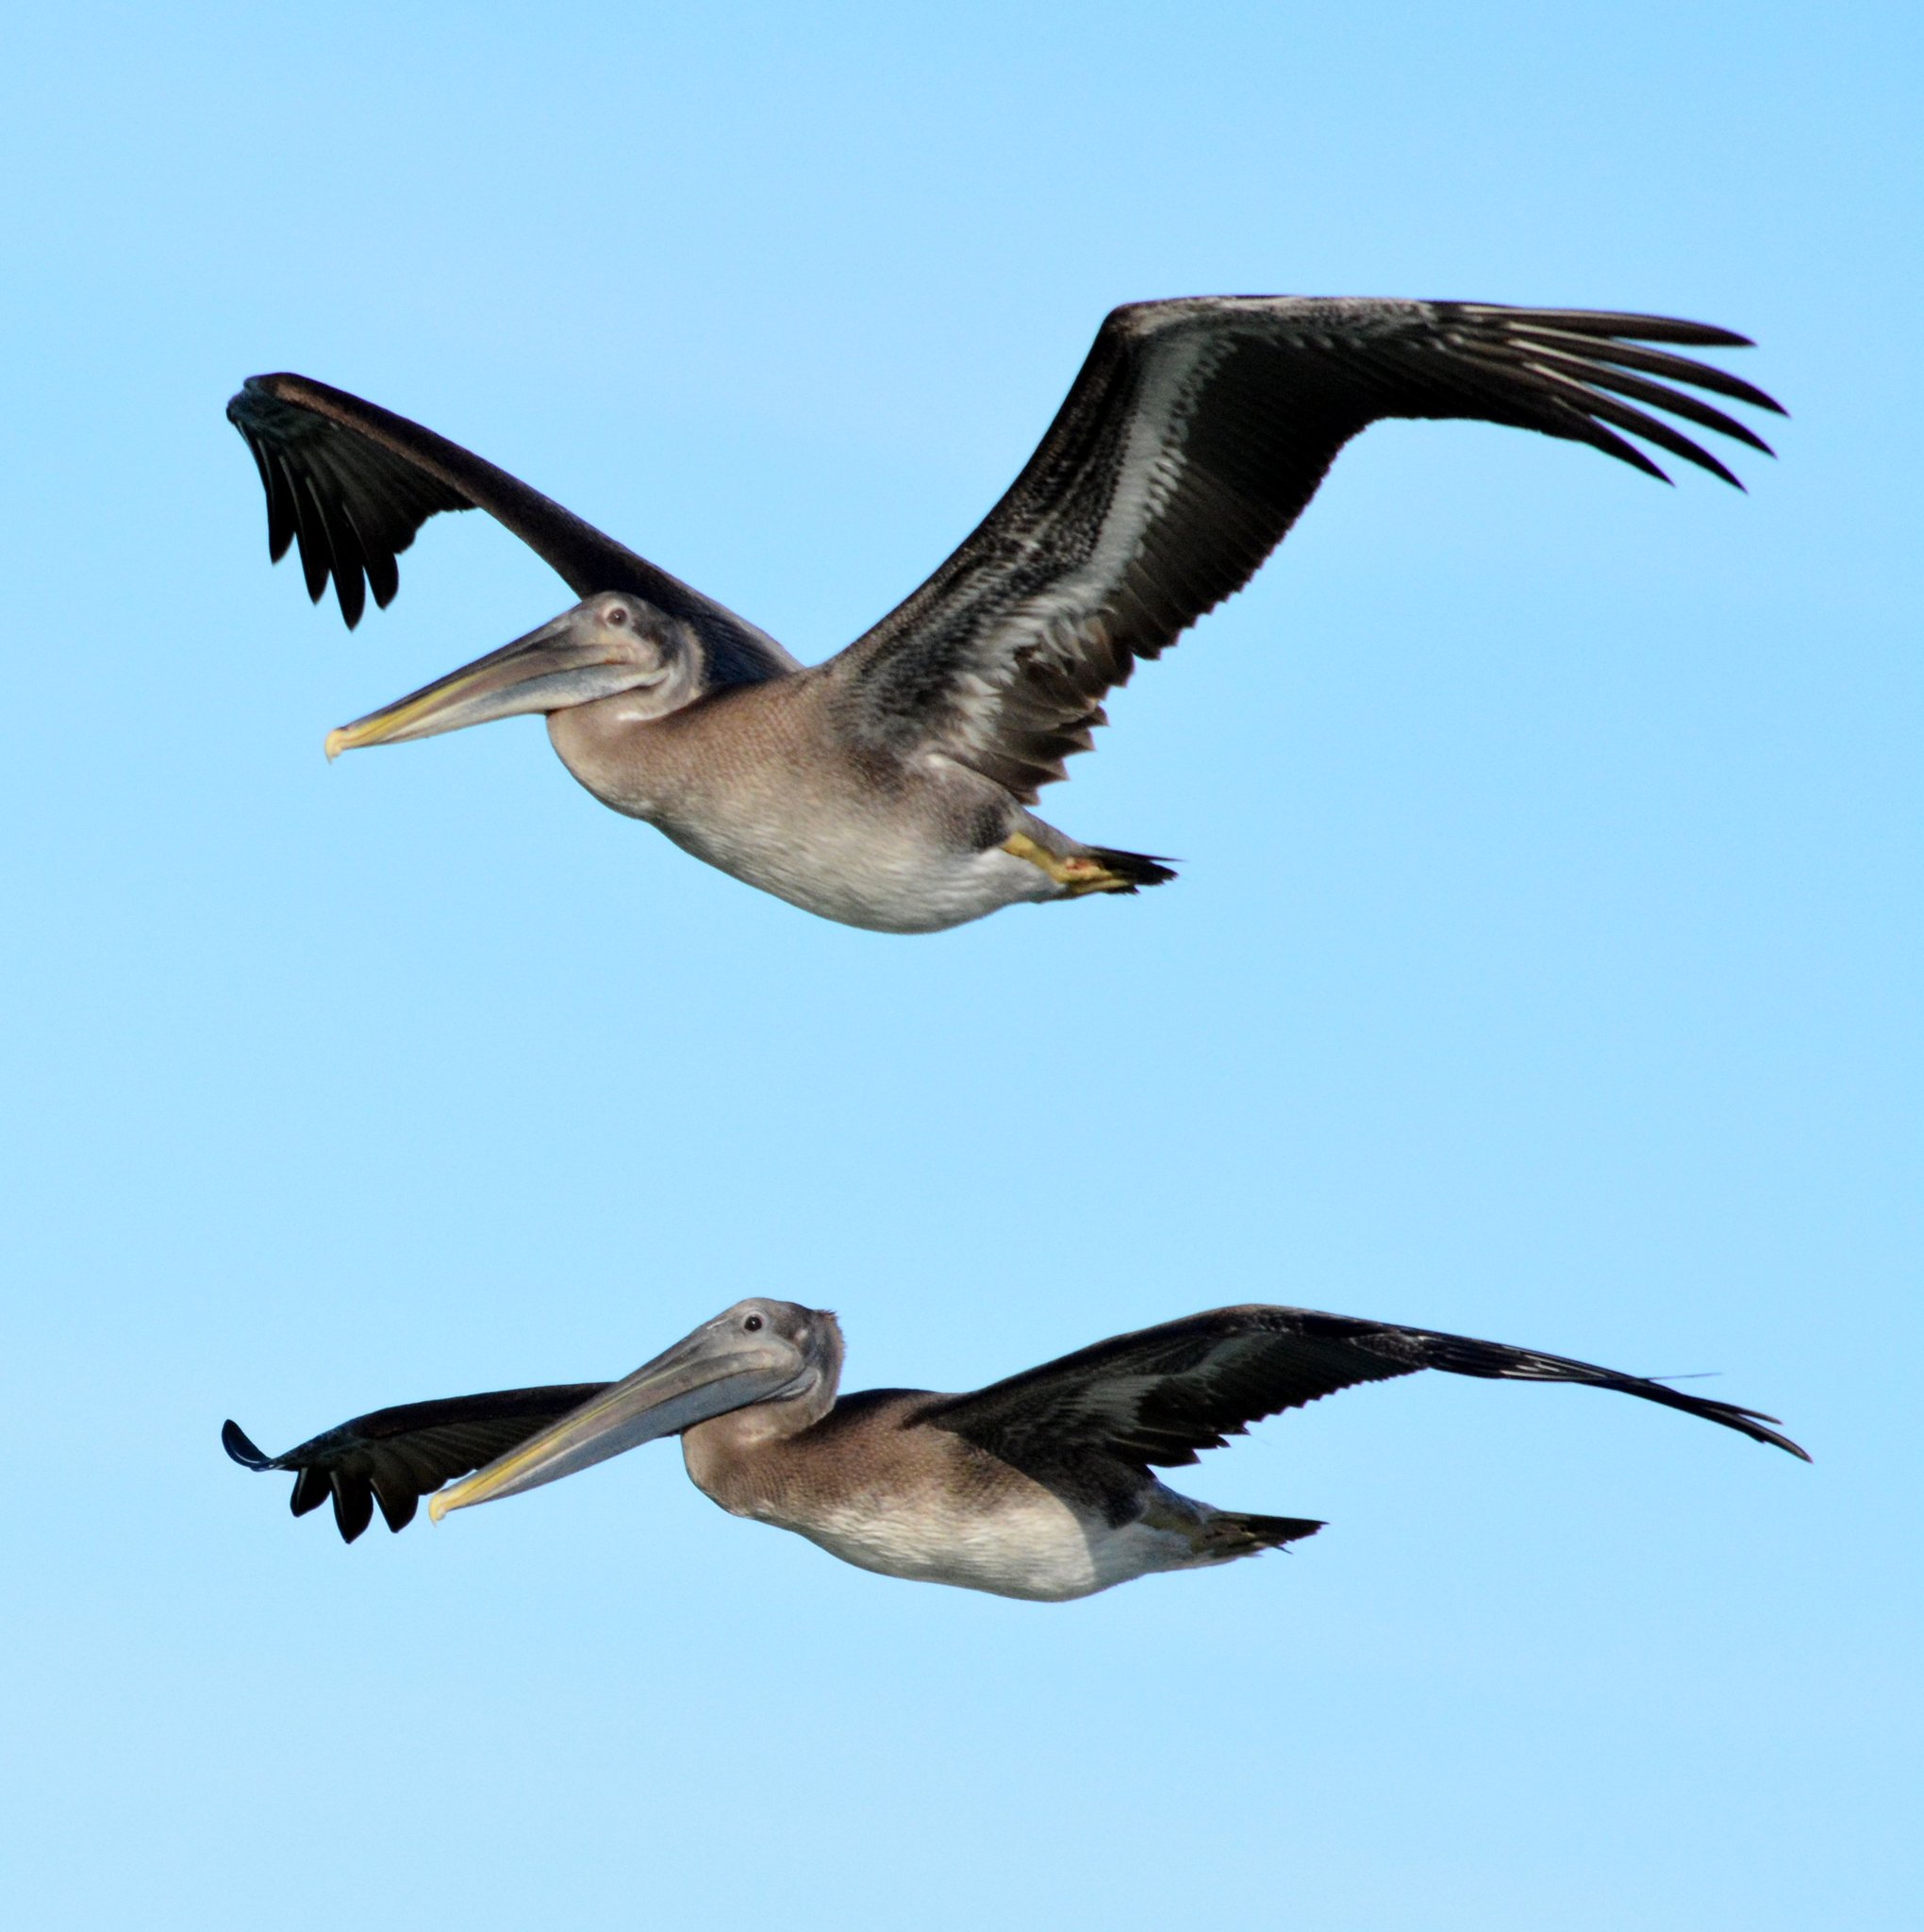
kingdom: Animalia
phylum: Chordata
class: Aves
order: Pelecaniformes
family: Pelecanidae
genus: Pelecanus
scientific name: Pelecanus occidentalis
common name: Brown pelican
